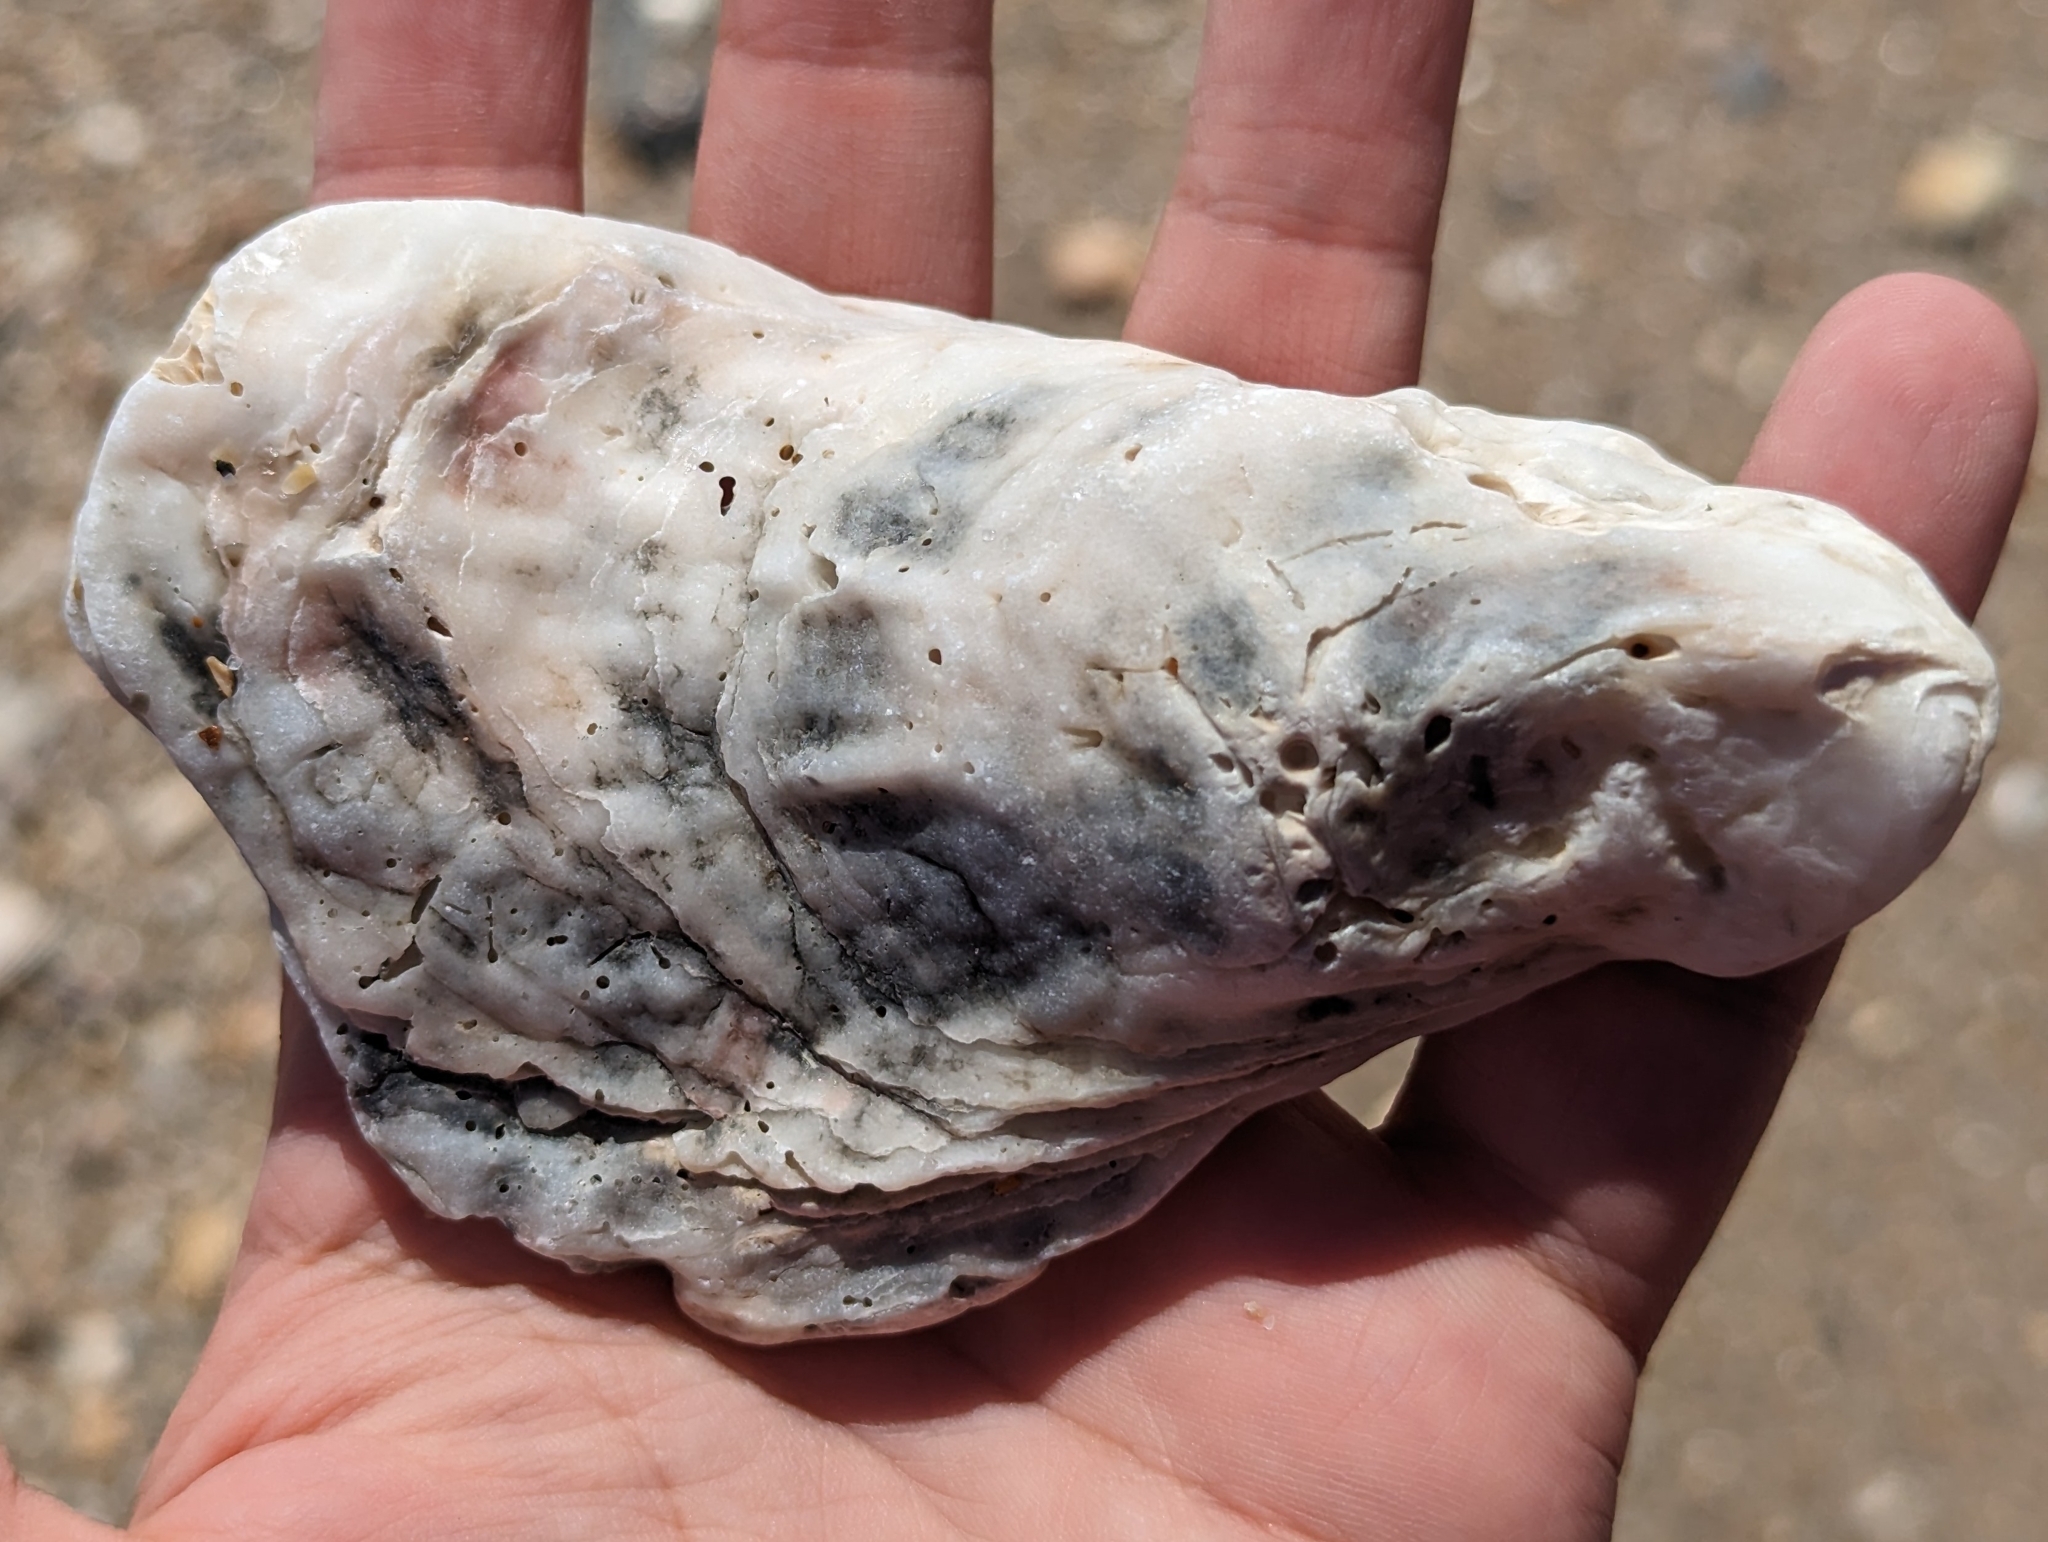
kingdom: Animalia
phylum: Mollusca
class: Bivalvia
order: Ostreida
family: Ostreidae
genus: Crassostrea
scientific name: Crassostrea virginica
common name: American oyster
